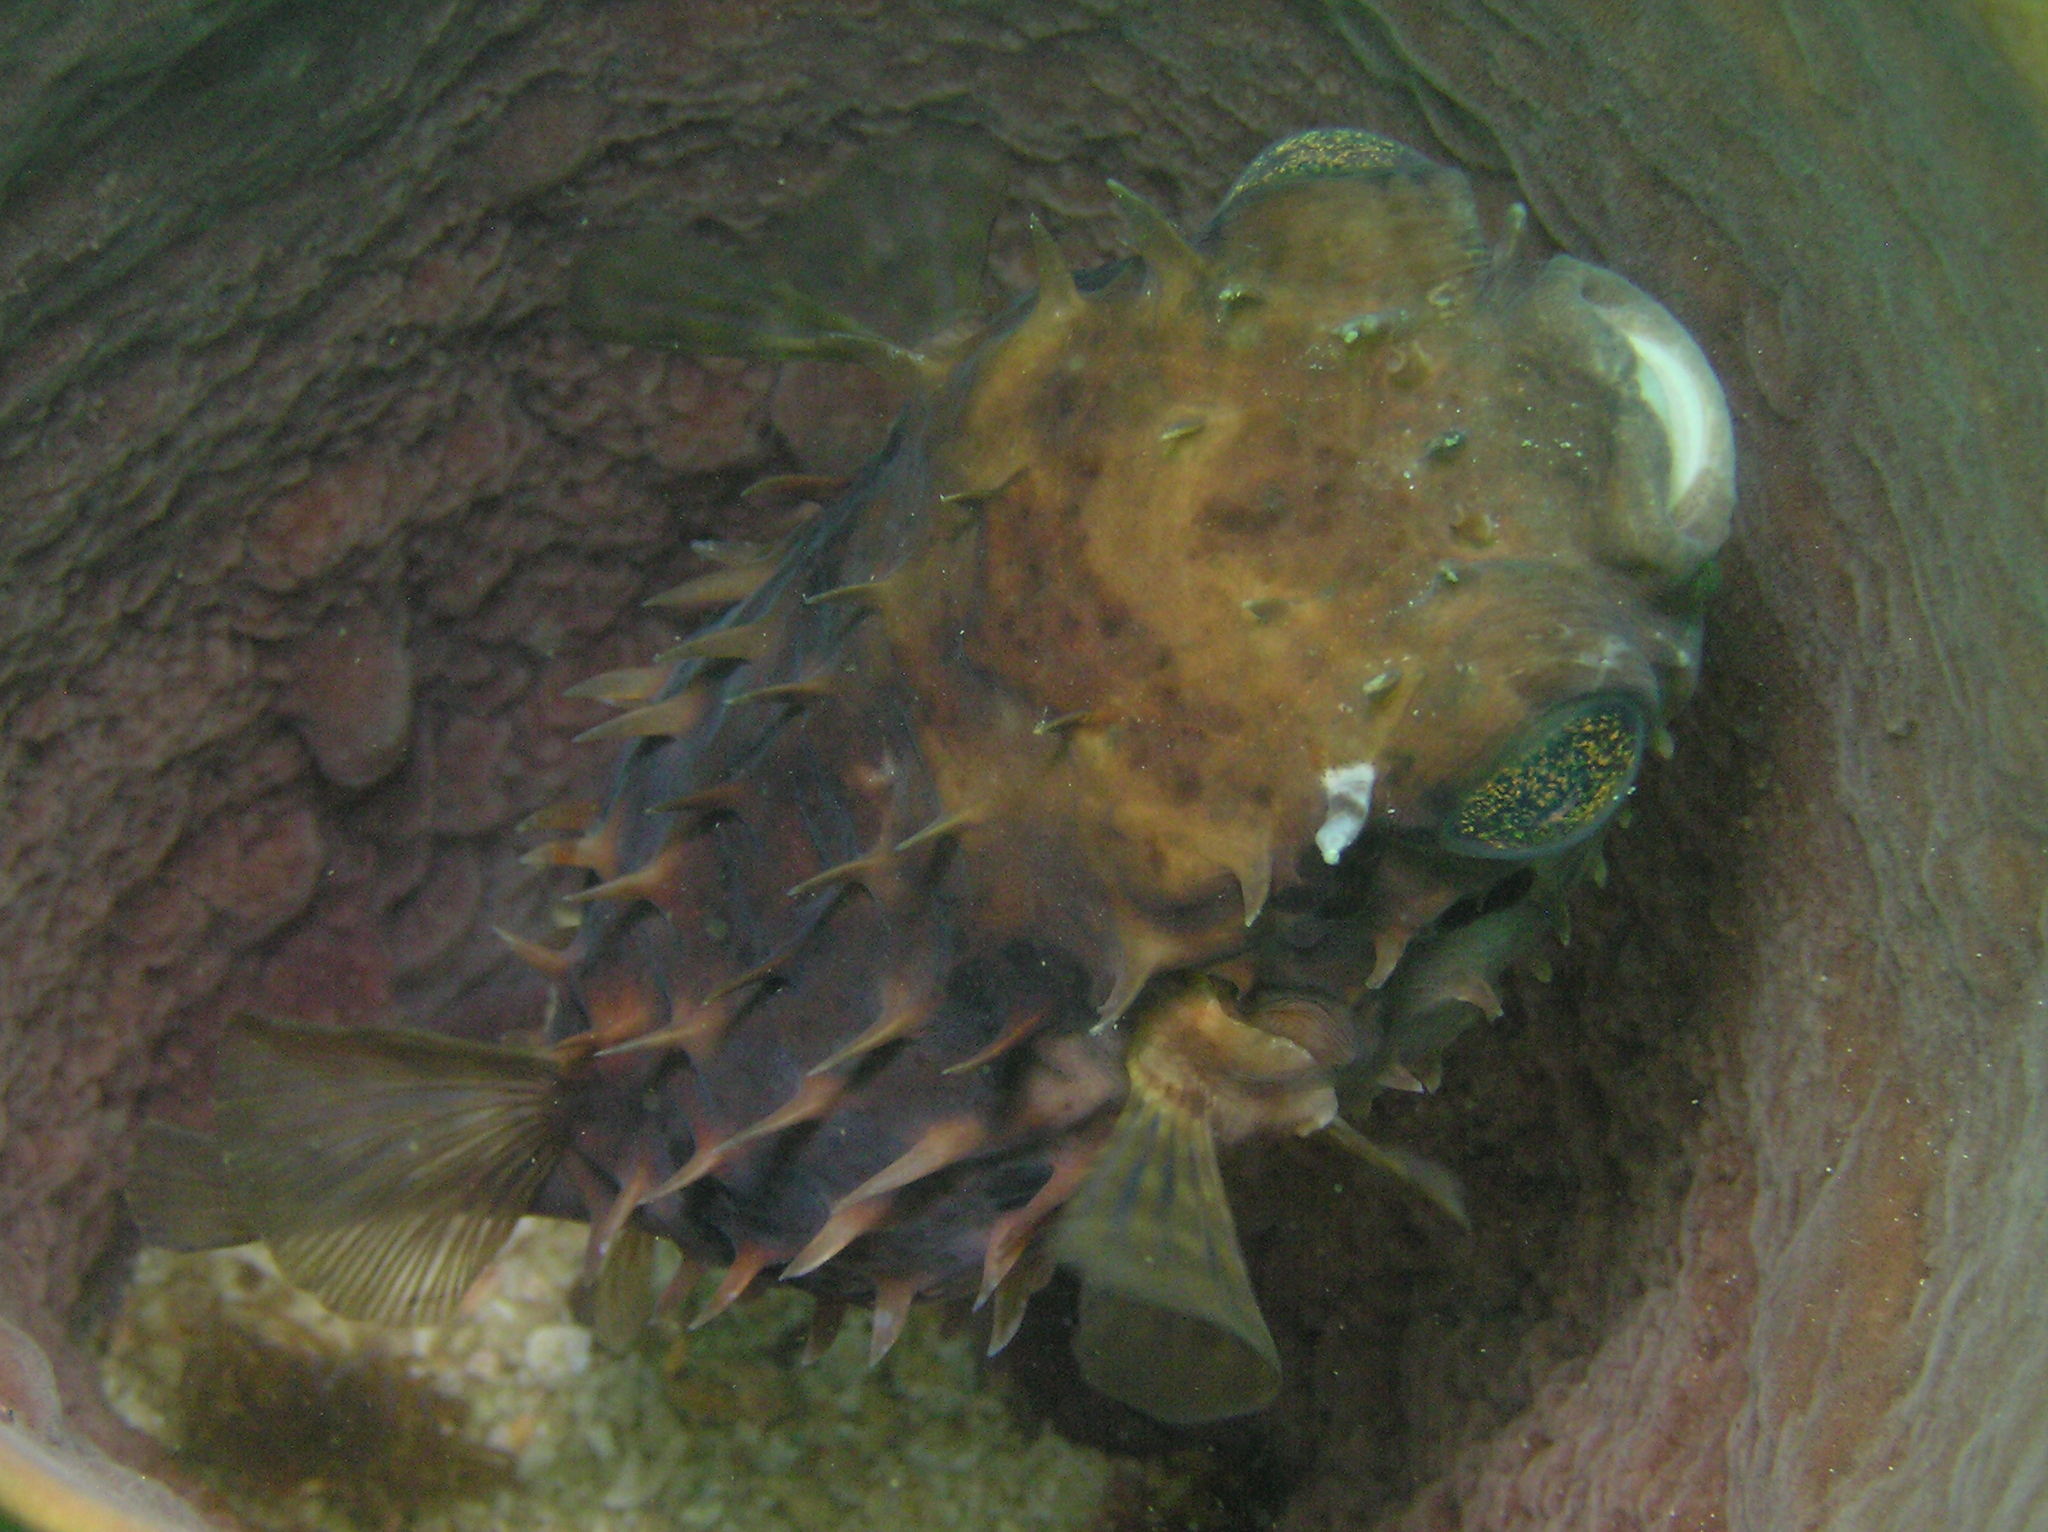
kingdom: Animalia
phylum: Chordata
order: Tetraodontiformes
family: Diodontidae
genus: Cyclichthys
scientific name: Cyclichthys orbicularis
